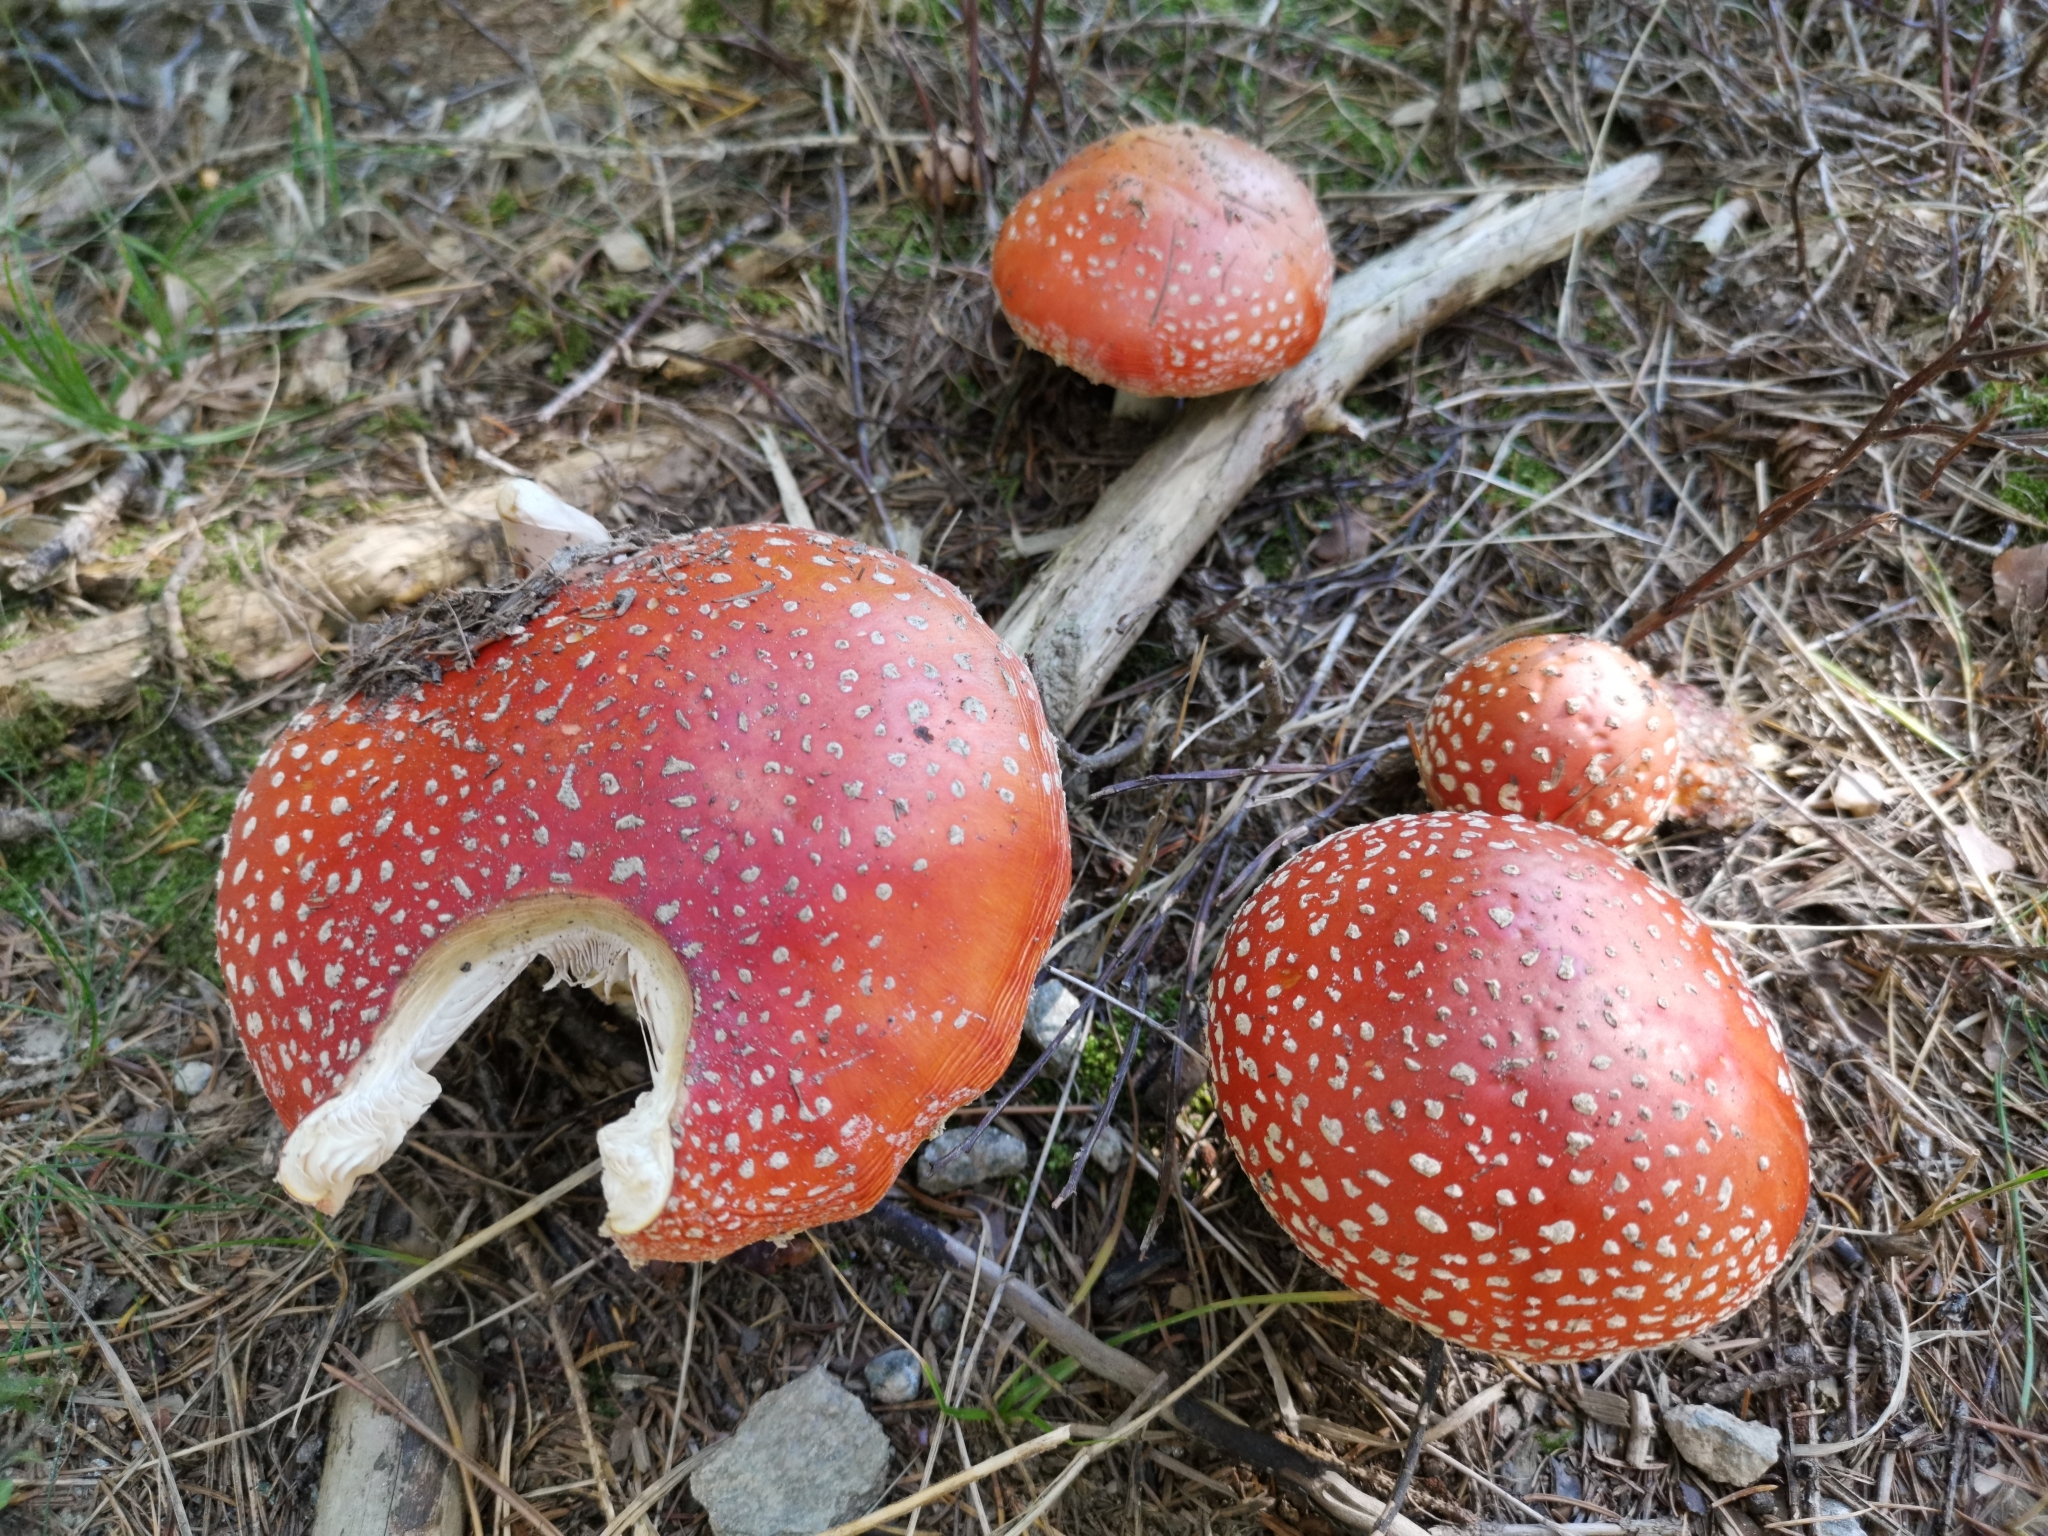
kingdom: Fungi
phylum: Basidiomycota
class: Agaricomycetes
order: Agaricales
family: Amanitaceae
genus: Amanita
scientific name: Amanita muscaria
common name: Fly agaric
